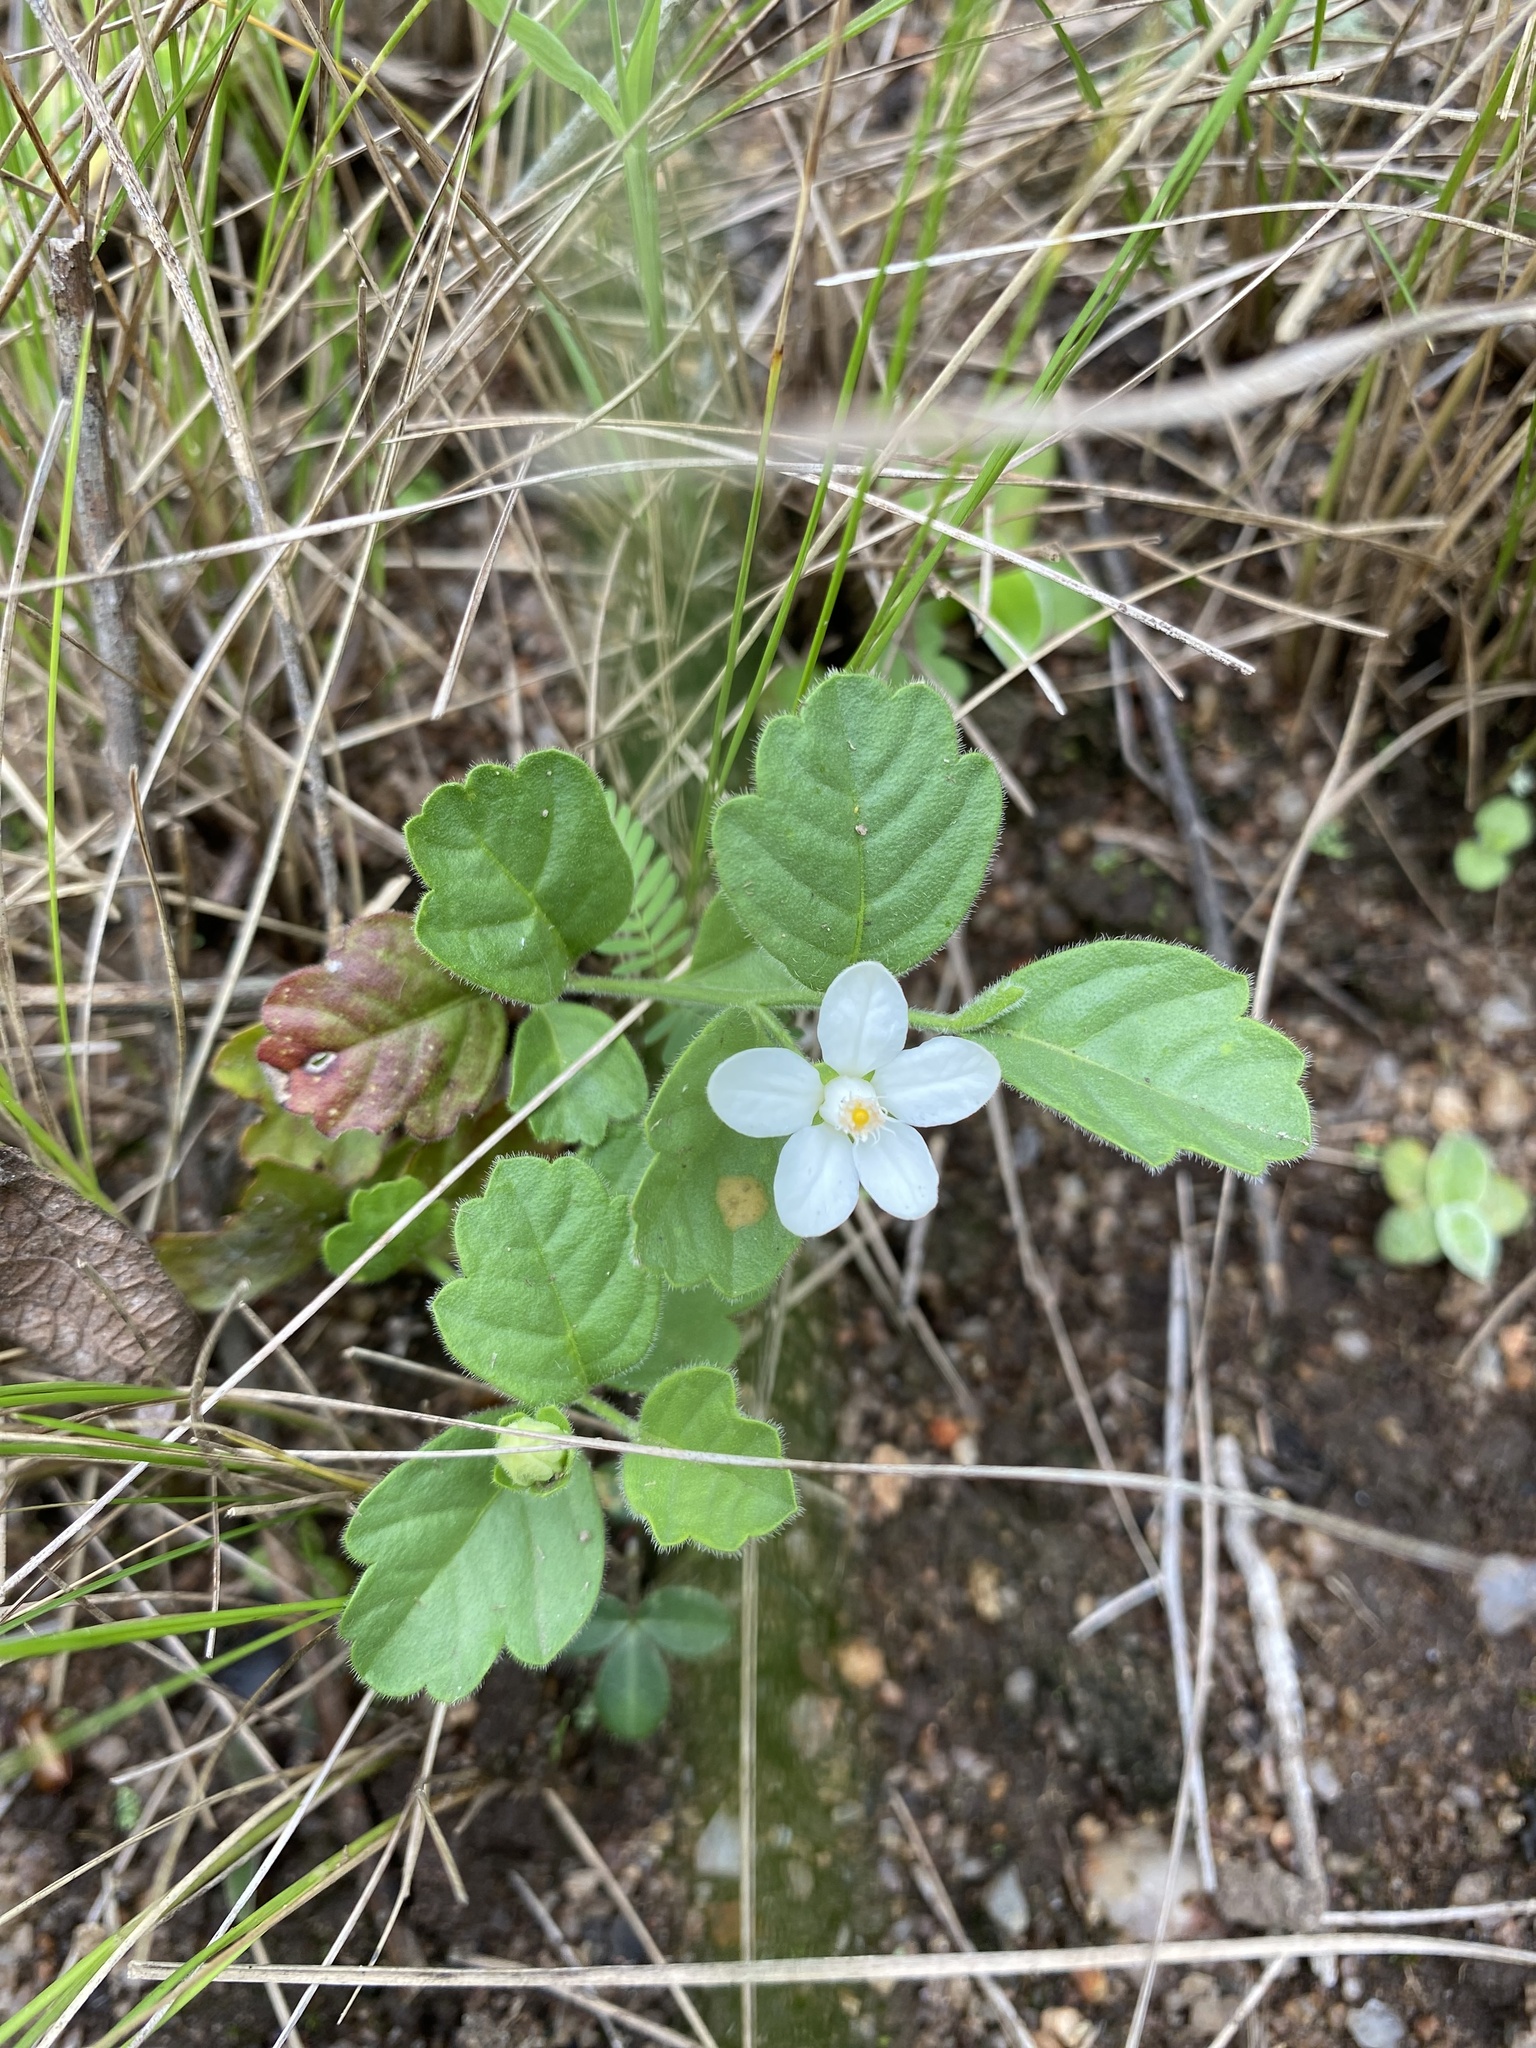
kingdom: Plantae
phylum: Tracheophyta
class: Magnoliopsida
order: Sapindales
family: Meliaceae
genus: Turraea
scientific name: Turraea pulchella
